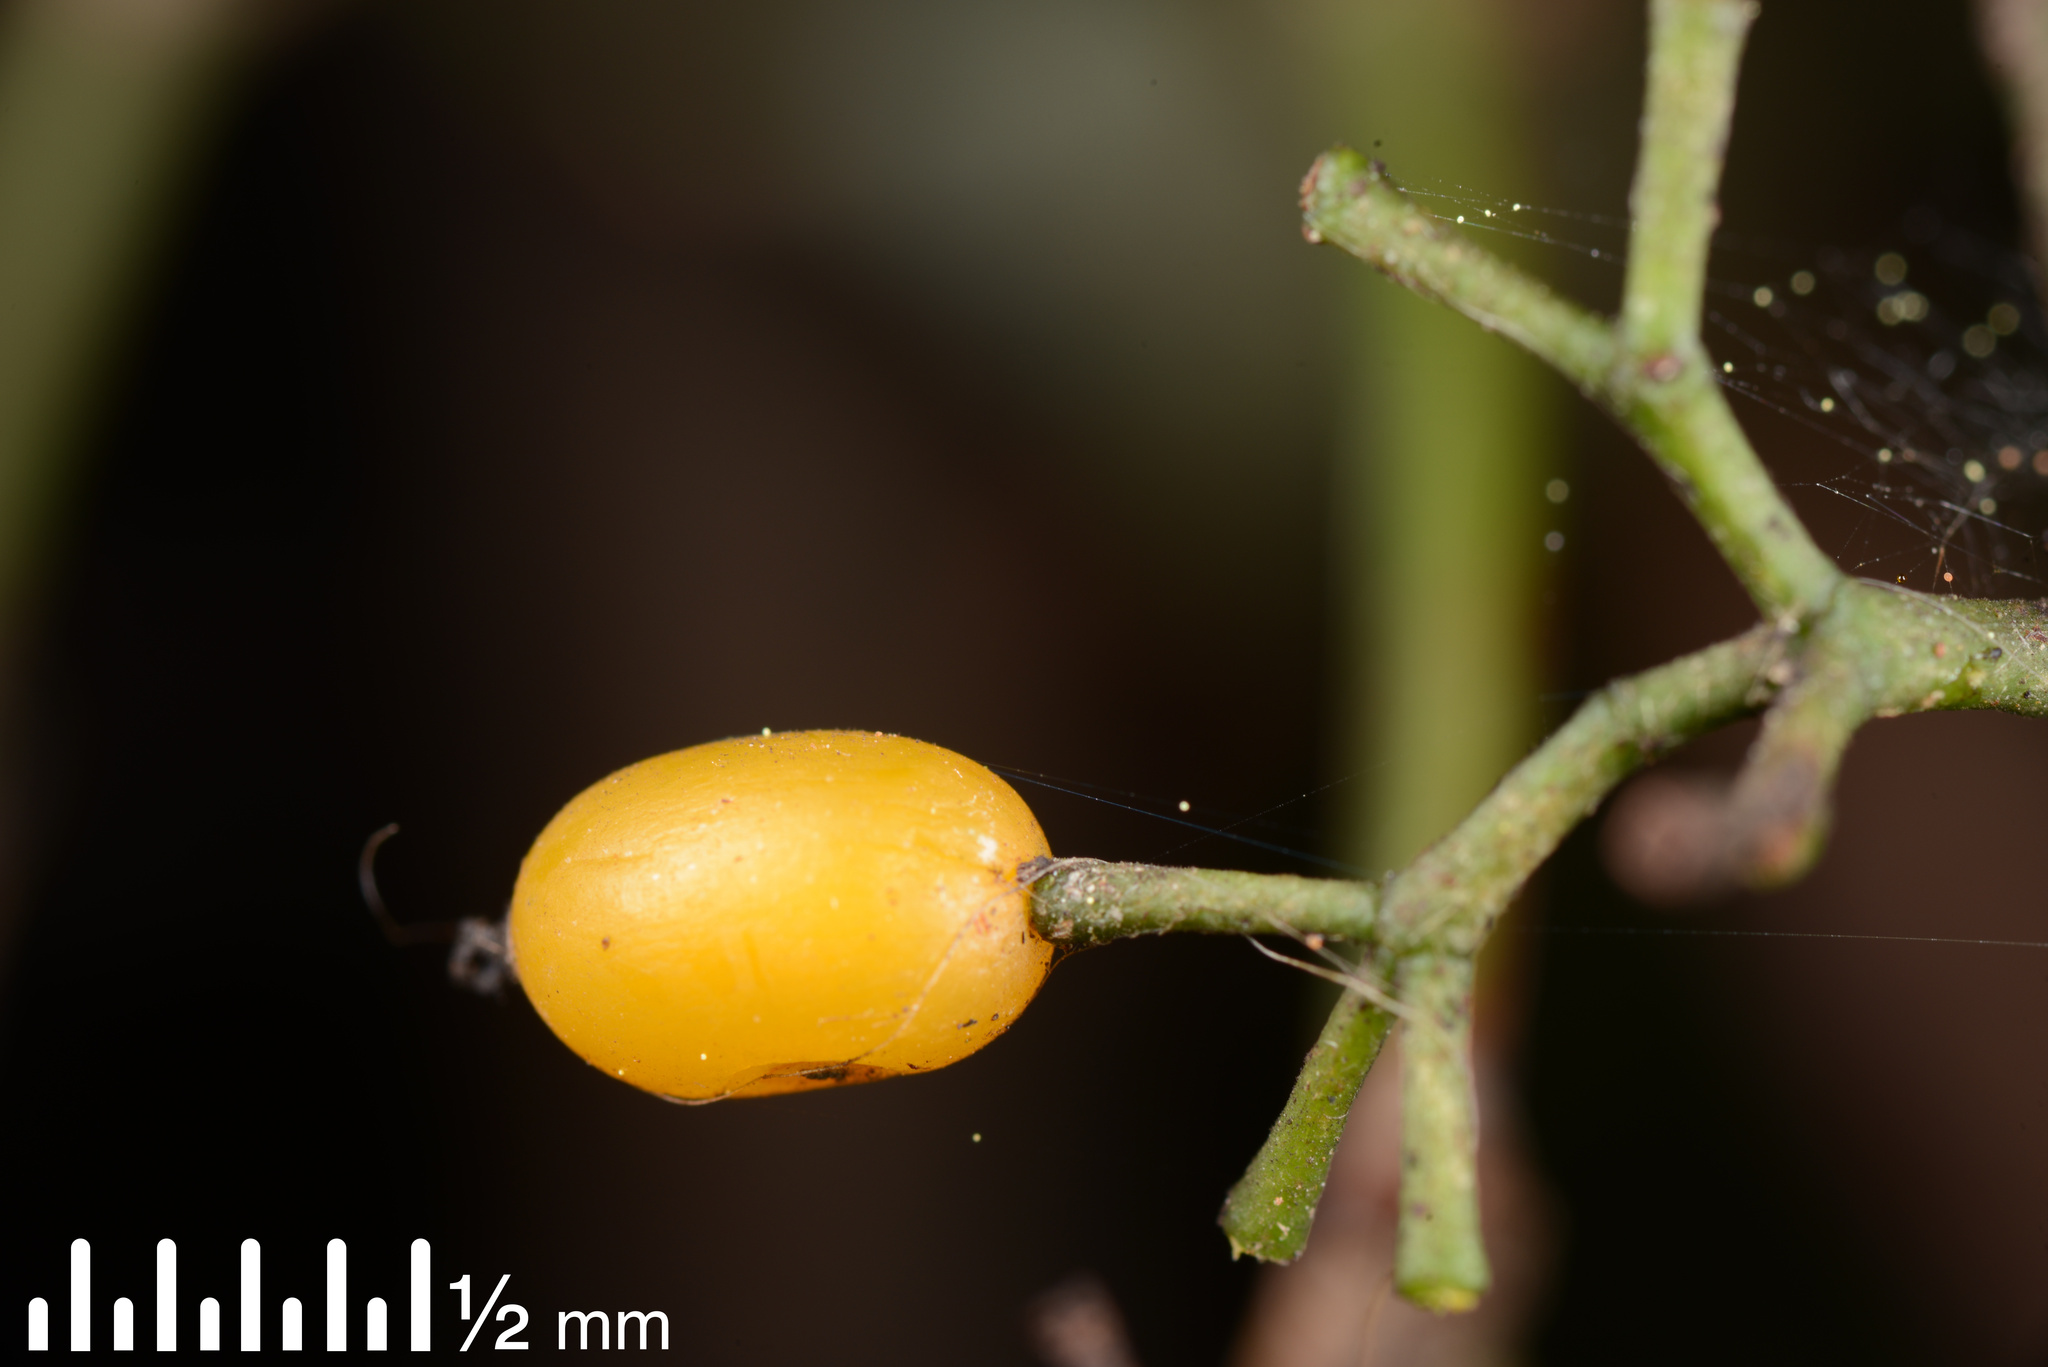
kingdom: Plantae
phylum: Tracheophyta
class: Magnoliopsida
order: Santalales
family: Loranthaceae
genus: Ileostylus
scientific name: Ileostylus micranthus
